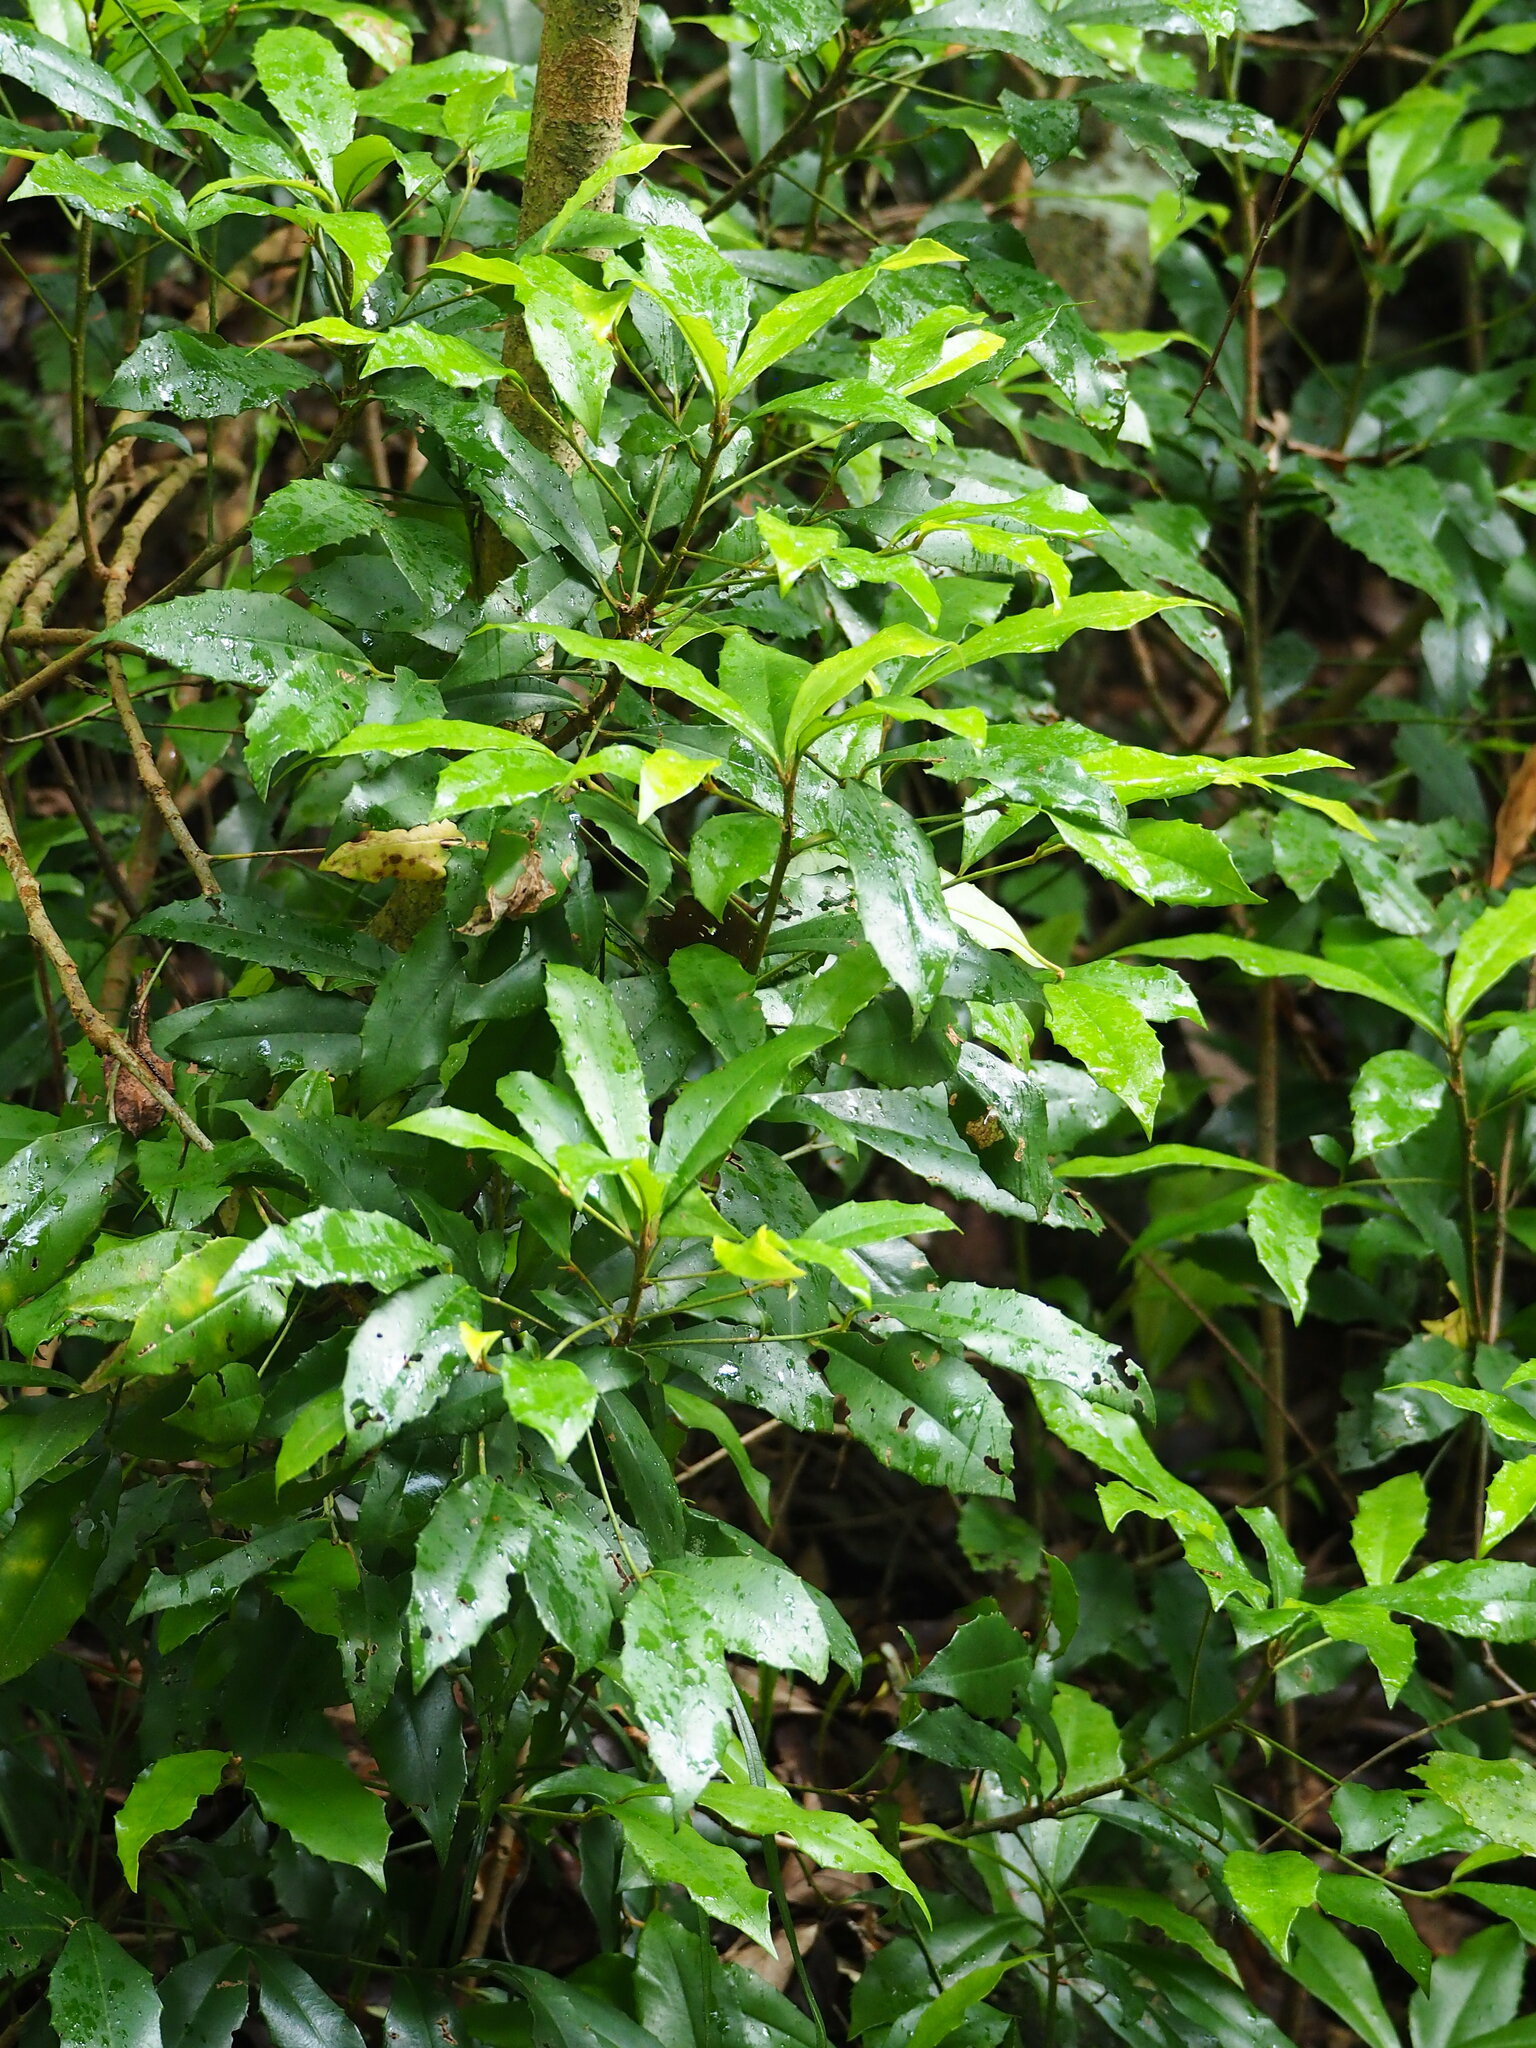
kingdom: Plantae
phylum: Tracheophyta
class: Magnoliopsida
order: Ericales
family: Primulaceae
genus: Ardisia
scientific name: Ardisia cornudentata
